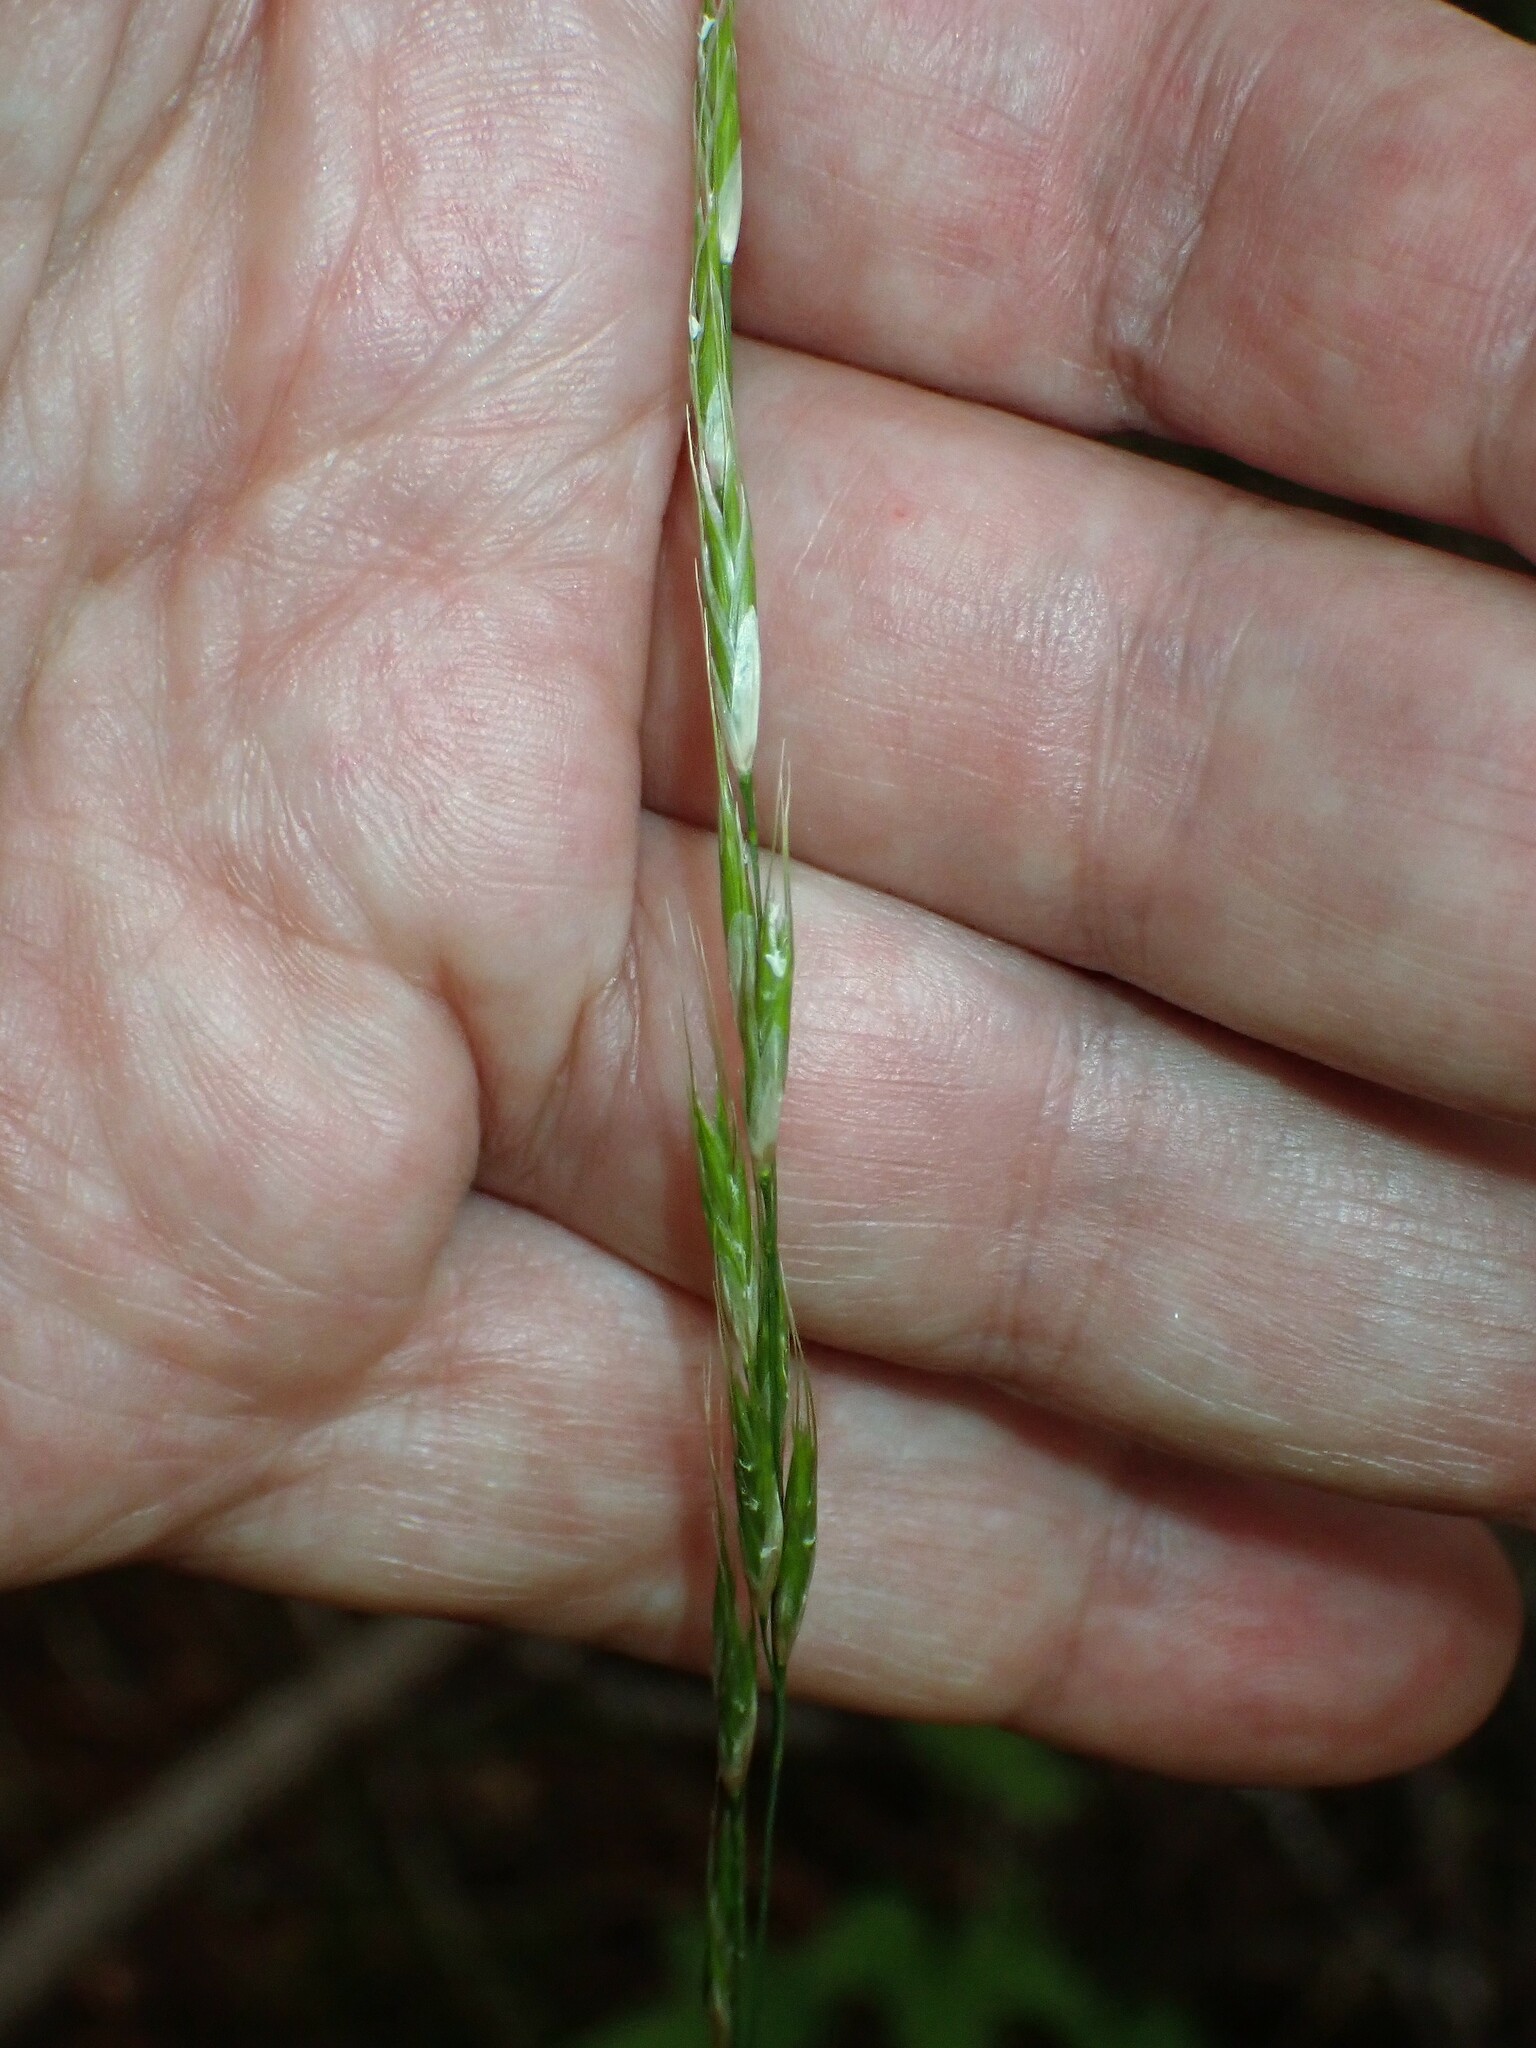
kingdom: Plantae
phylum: Tracheophyta
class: Liliopsida
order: Poales
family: Poaceae
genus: Schizachne
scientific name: Schizachne purpurascens
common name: False melic
